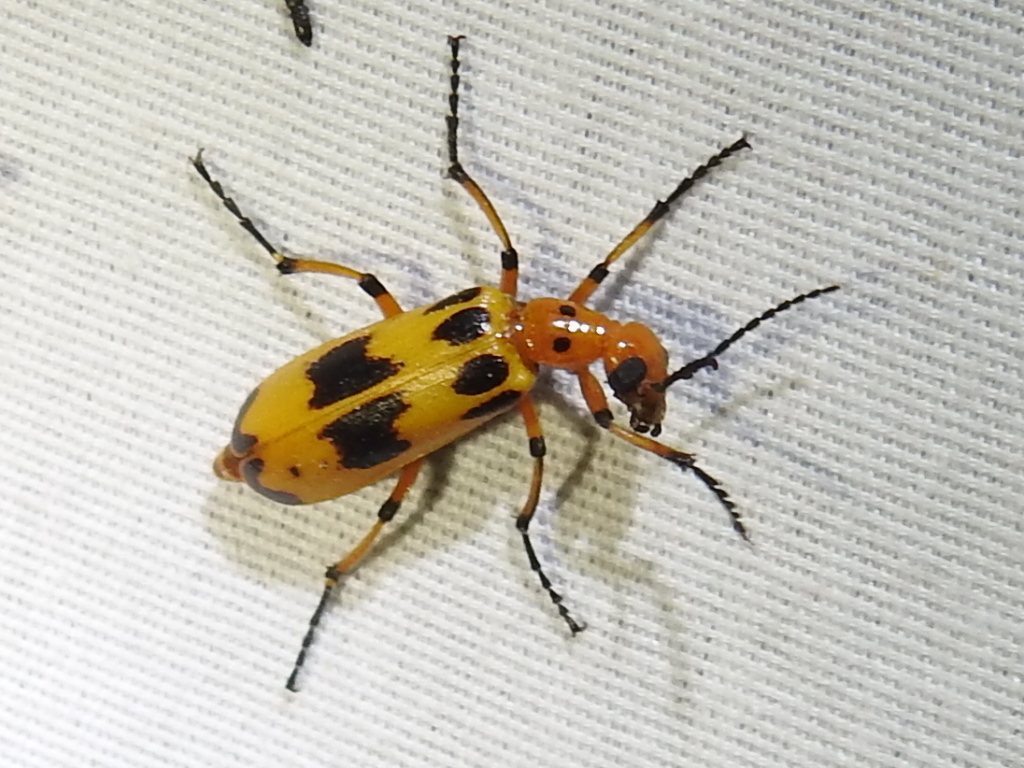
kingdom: Animalia
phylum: Arthropoda
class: Insecta
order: Coleoptera
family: Meloidae
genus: Pyrota
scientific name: Pyrota punctata
